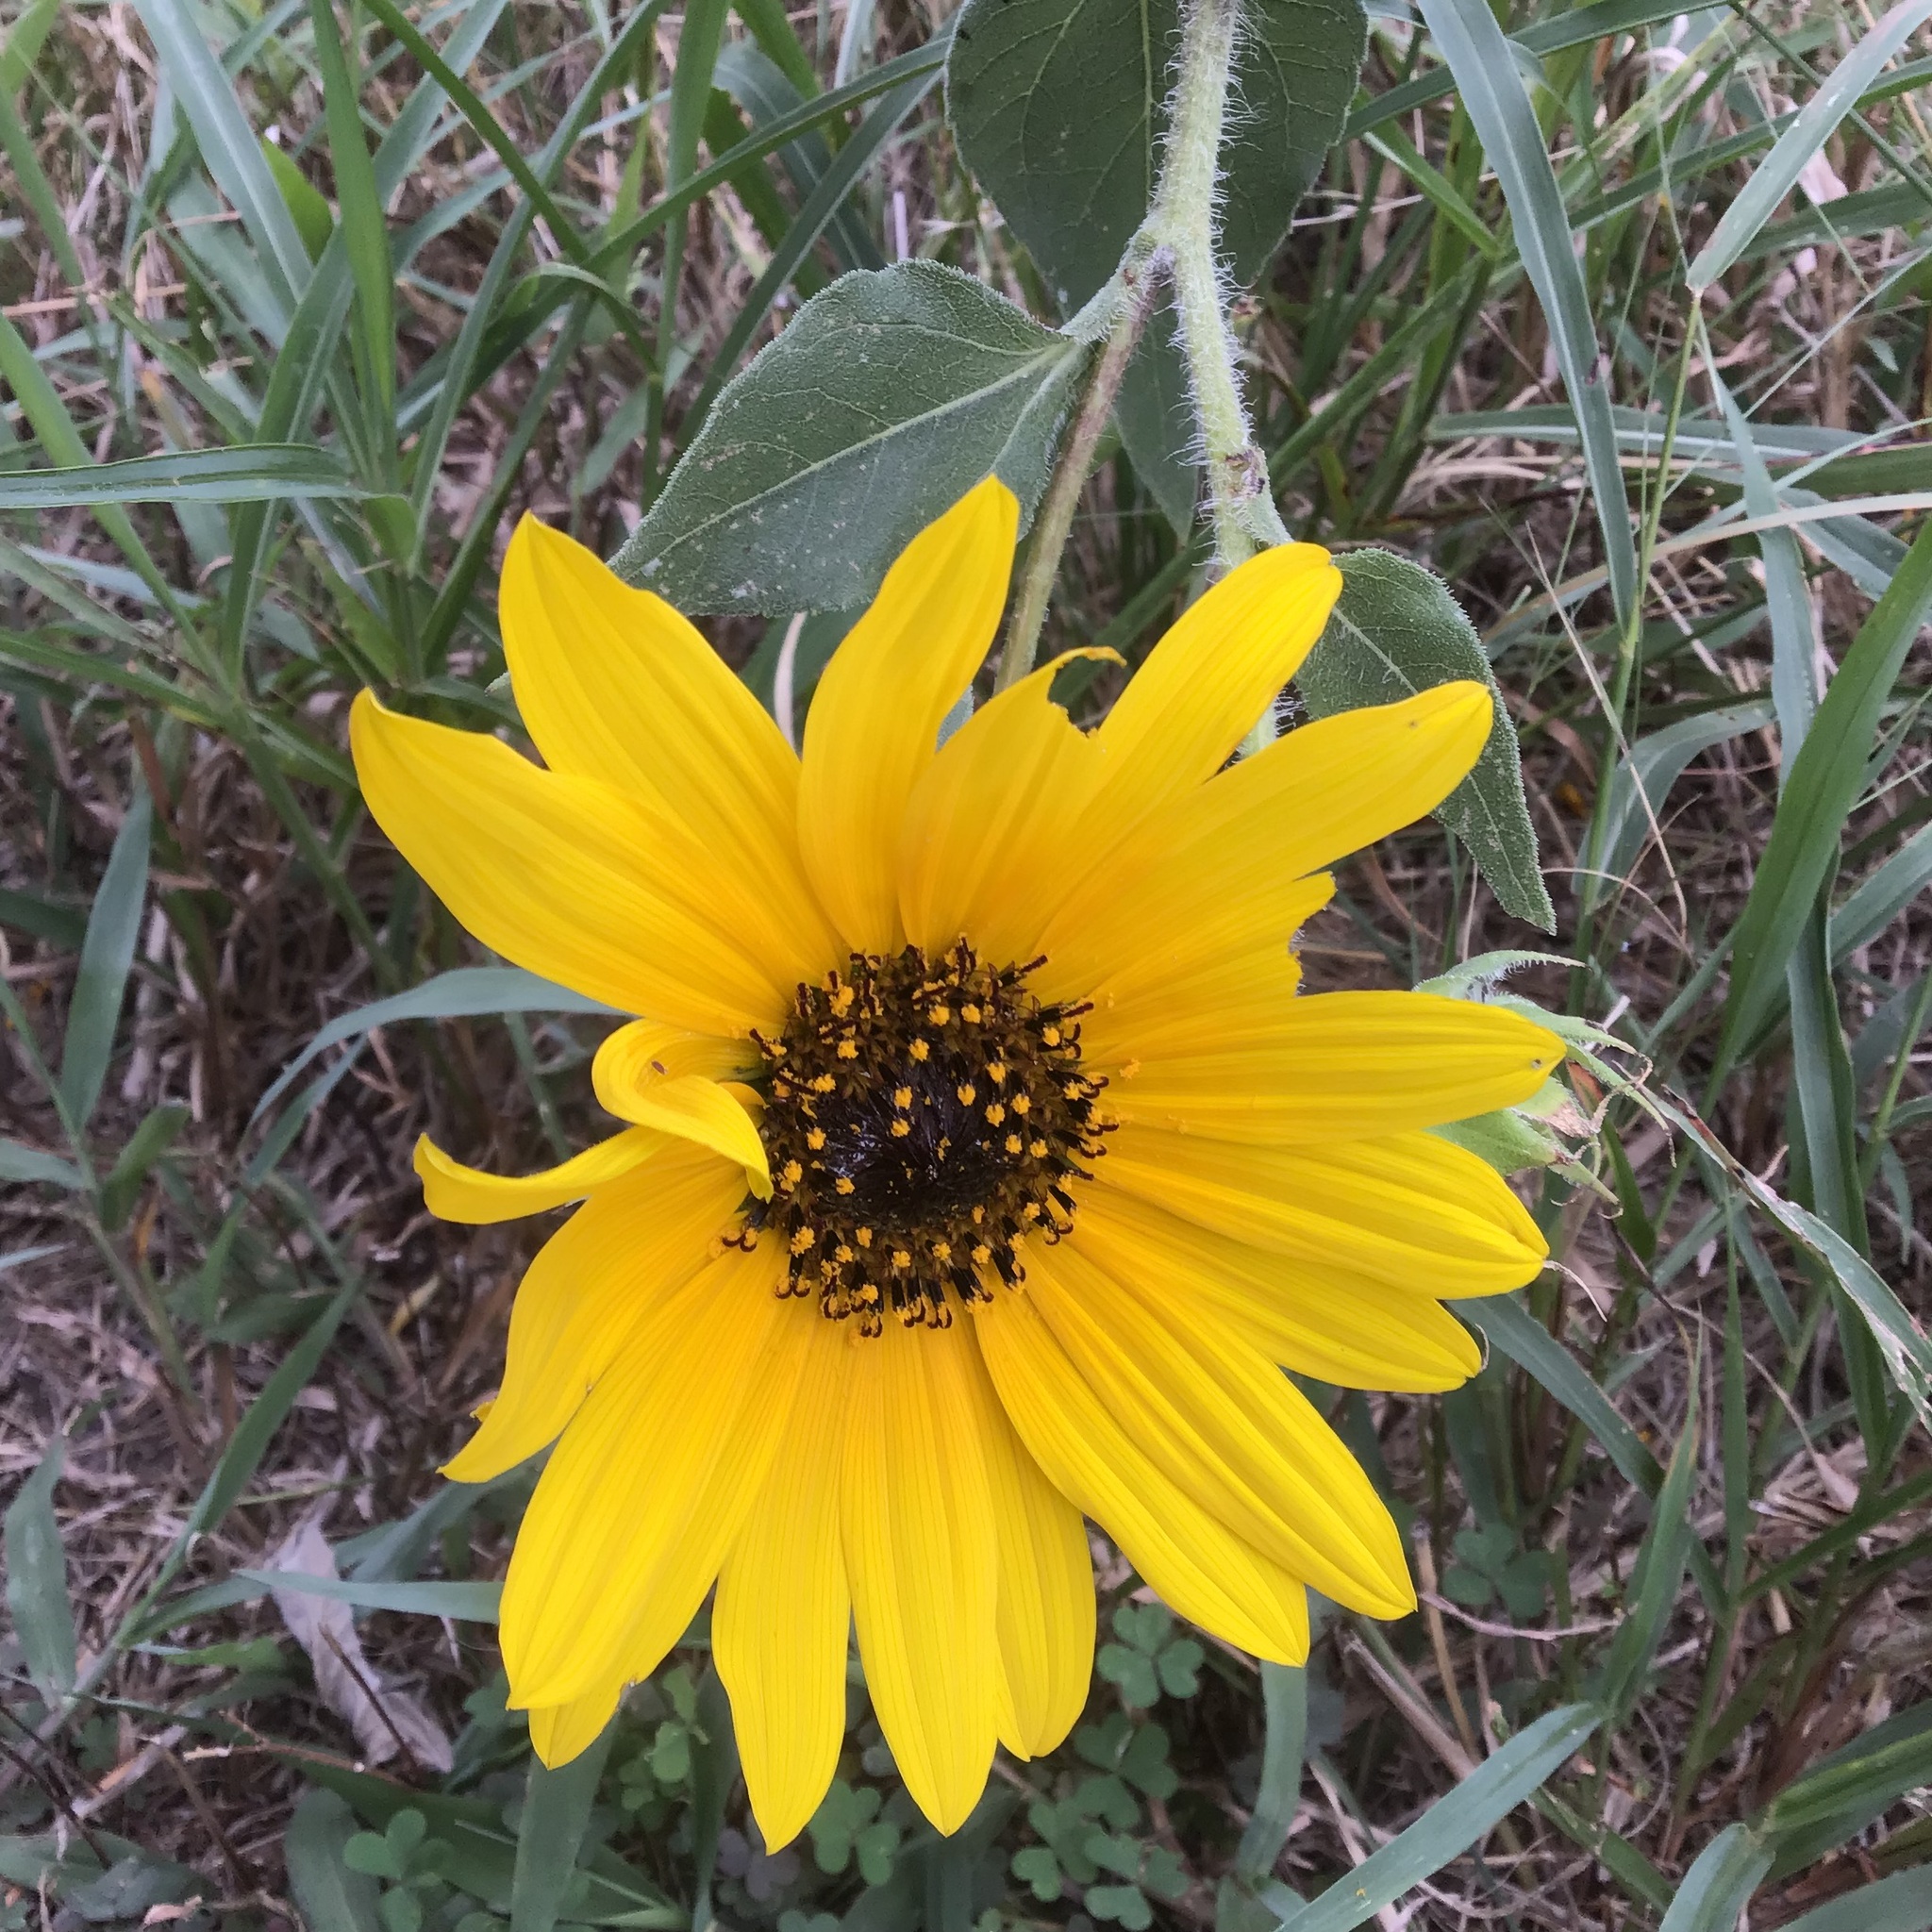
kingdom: Plantae
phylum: Tracheophyta
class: Magnoliopsida
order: Asterales
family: Asteraceae
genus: Helianthus
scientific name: Helianthus annuus
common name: Sunflower
